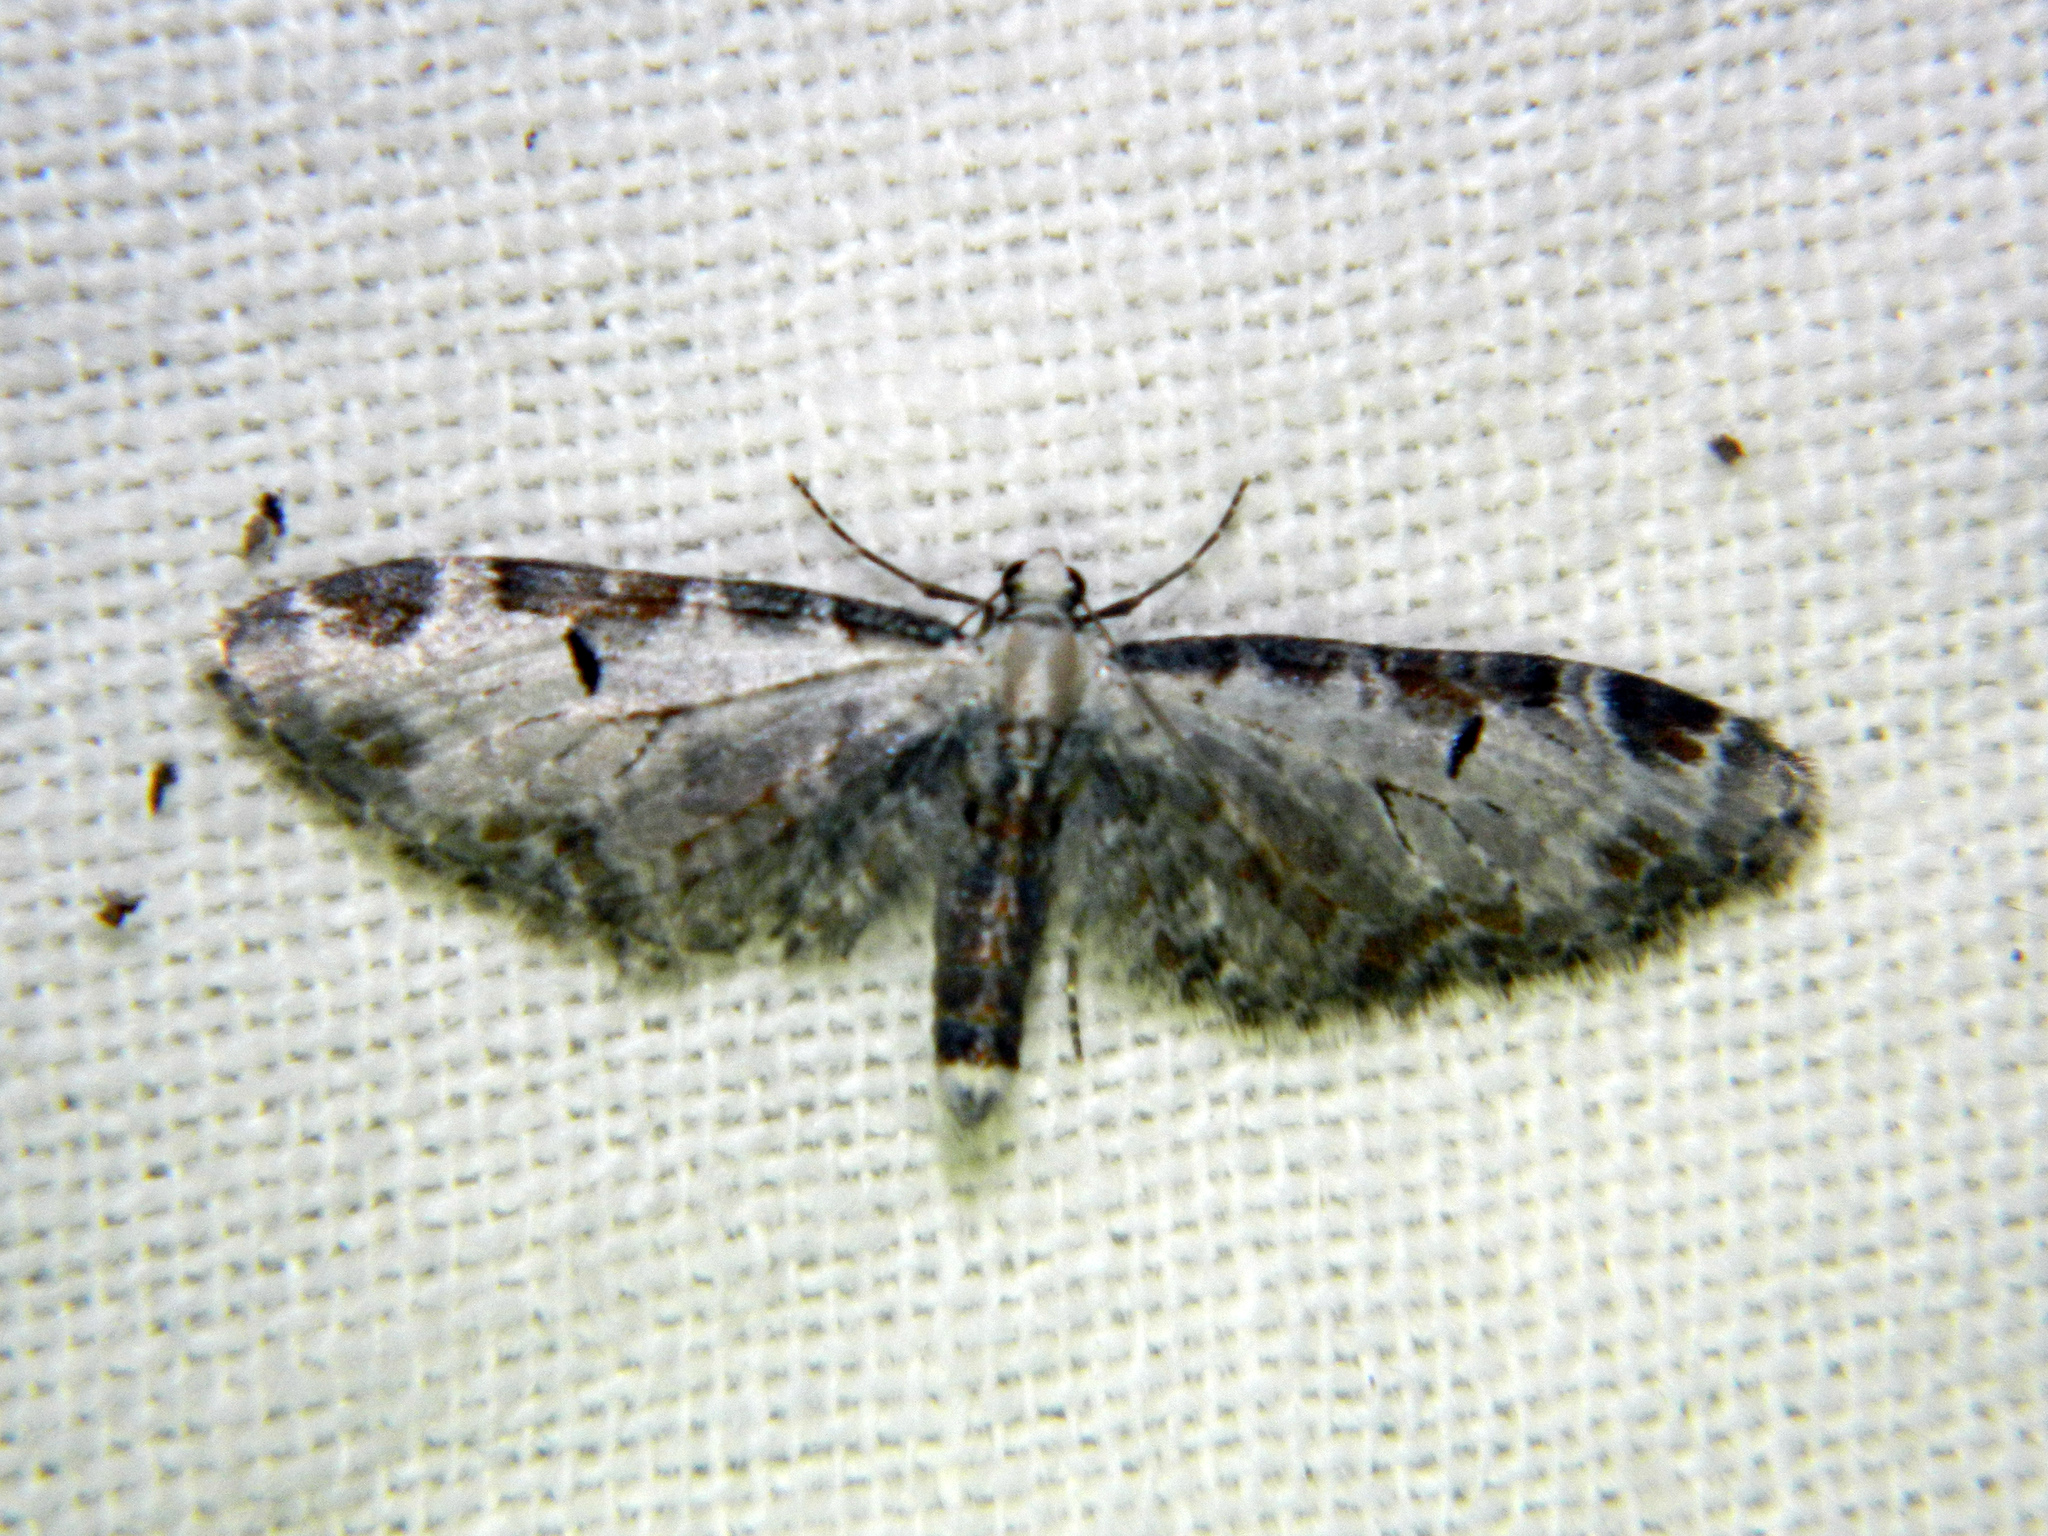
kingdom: Animalia
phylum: Arthropoda
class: Insecta
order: Lepidoptera
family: Geometridae
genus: Eupithecia
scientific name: Eupithecia ravocostaliata
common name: Great varigated pug
